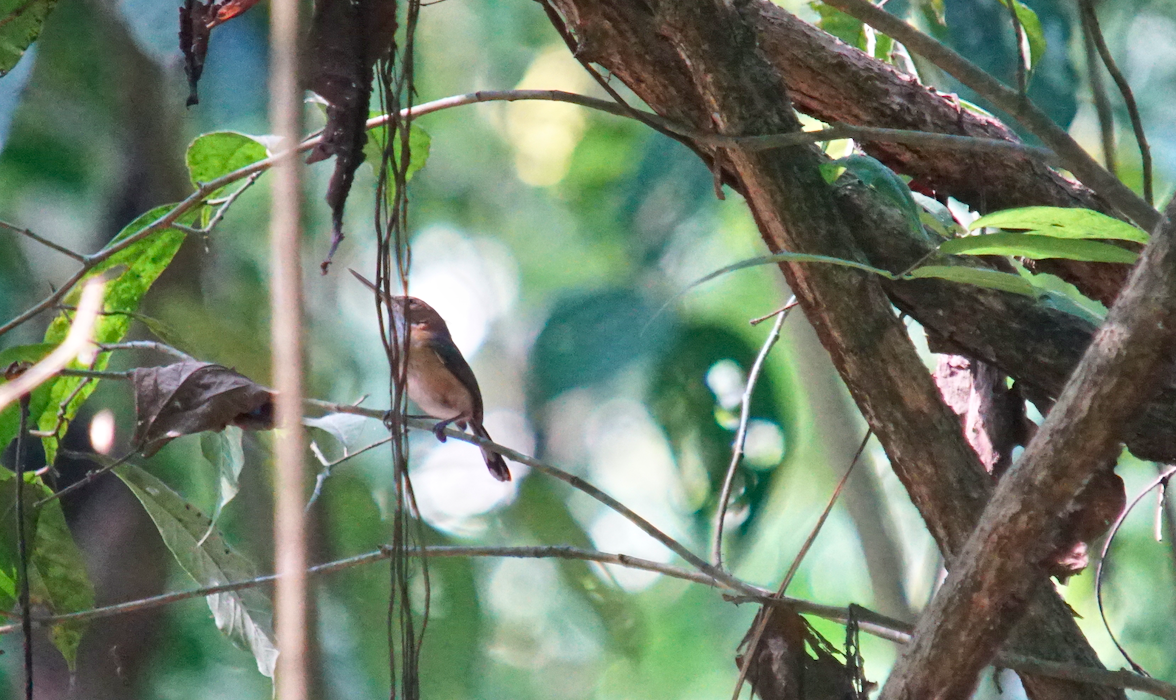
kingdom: Animalia
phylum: Chordata
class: Aves
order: Passeriformes
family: Polioptilidae
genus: Ramphocaenus
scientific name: Ramphocaenus melanurus
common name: Long-billed gnatwren
